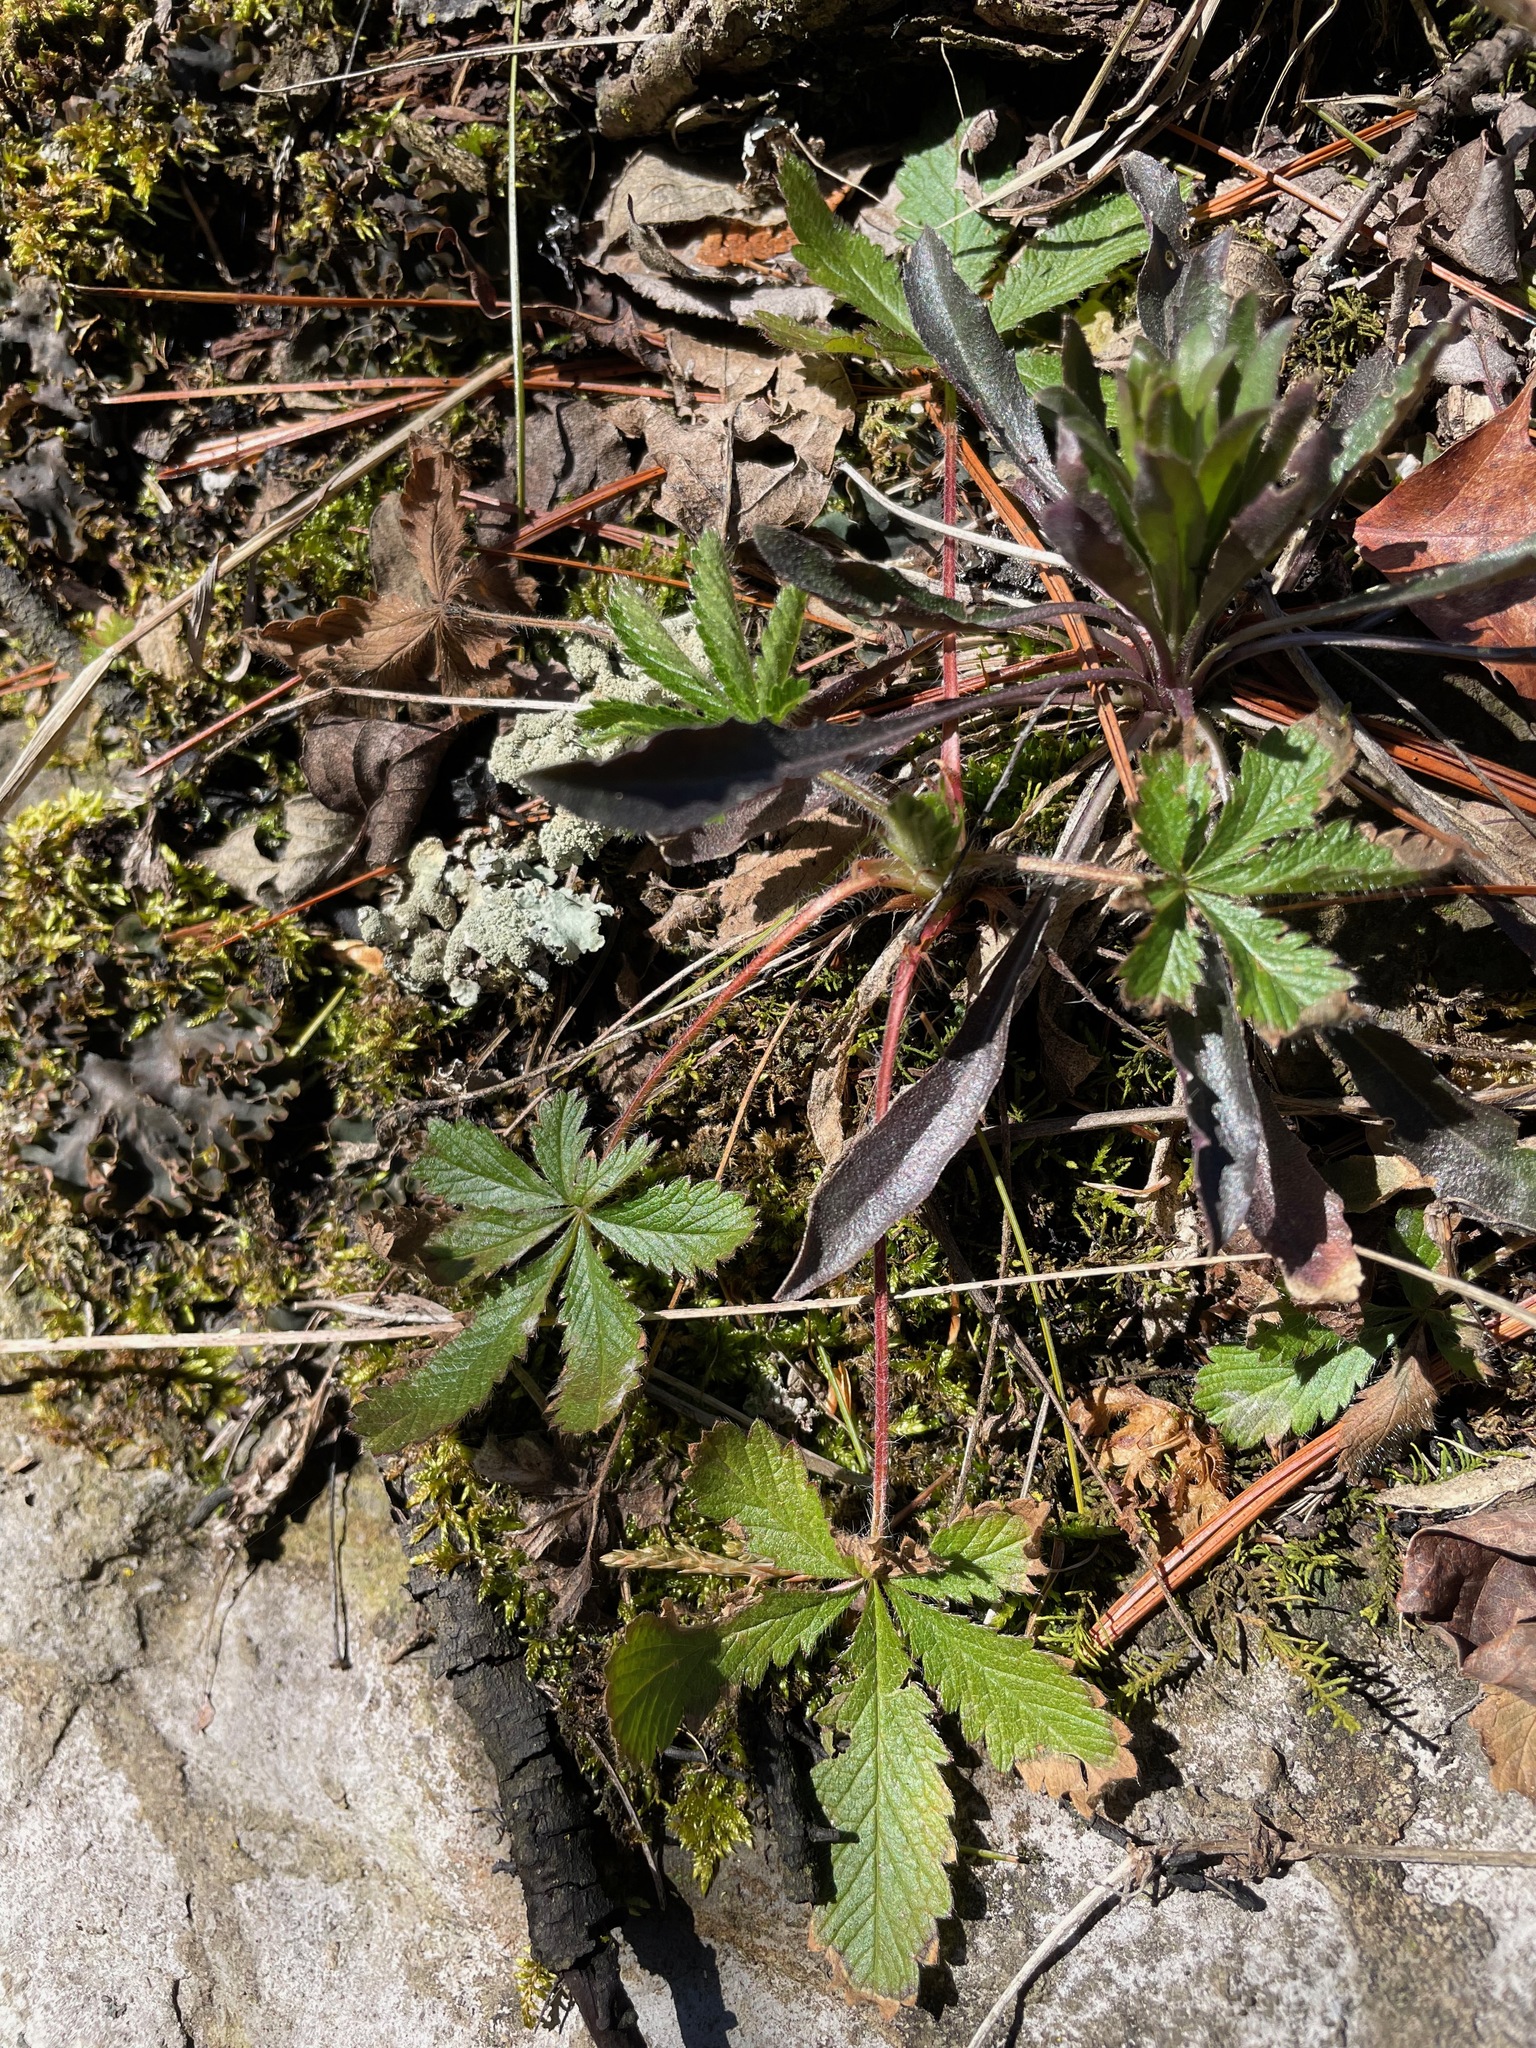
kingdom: Plantae
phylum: Tracheophyta
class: Magnoliopsida
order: Rosales
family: Rosaceae
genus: Potentilla
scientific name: Potentilla recta
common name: Sulphur cinquefoil
